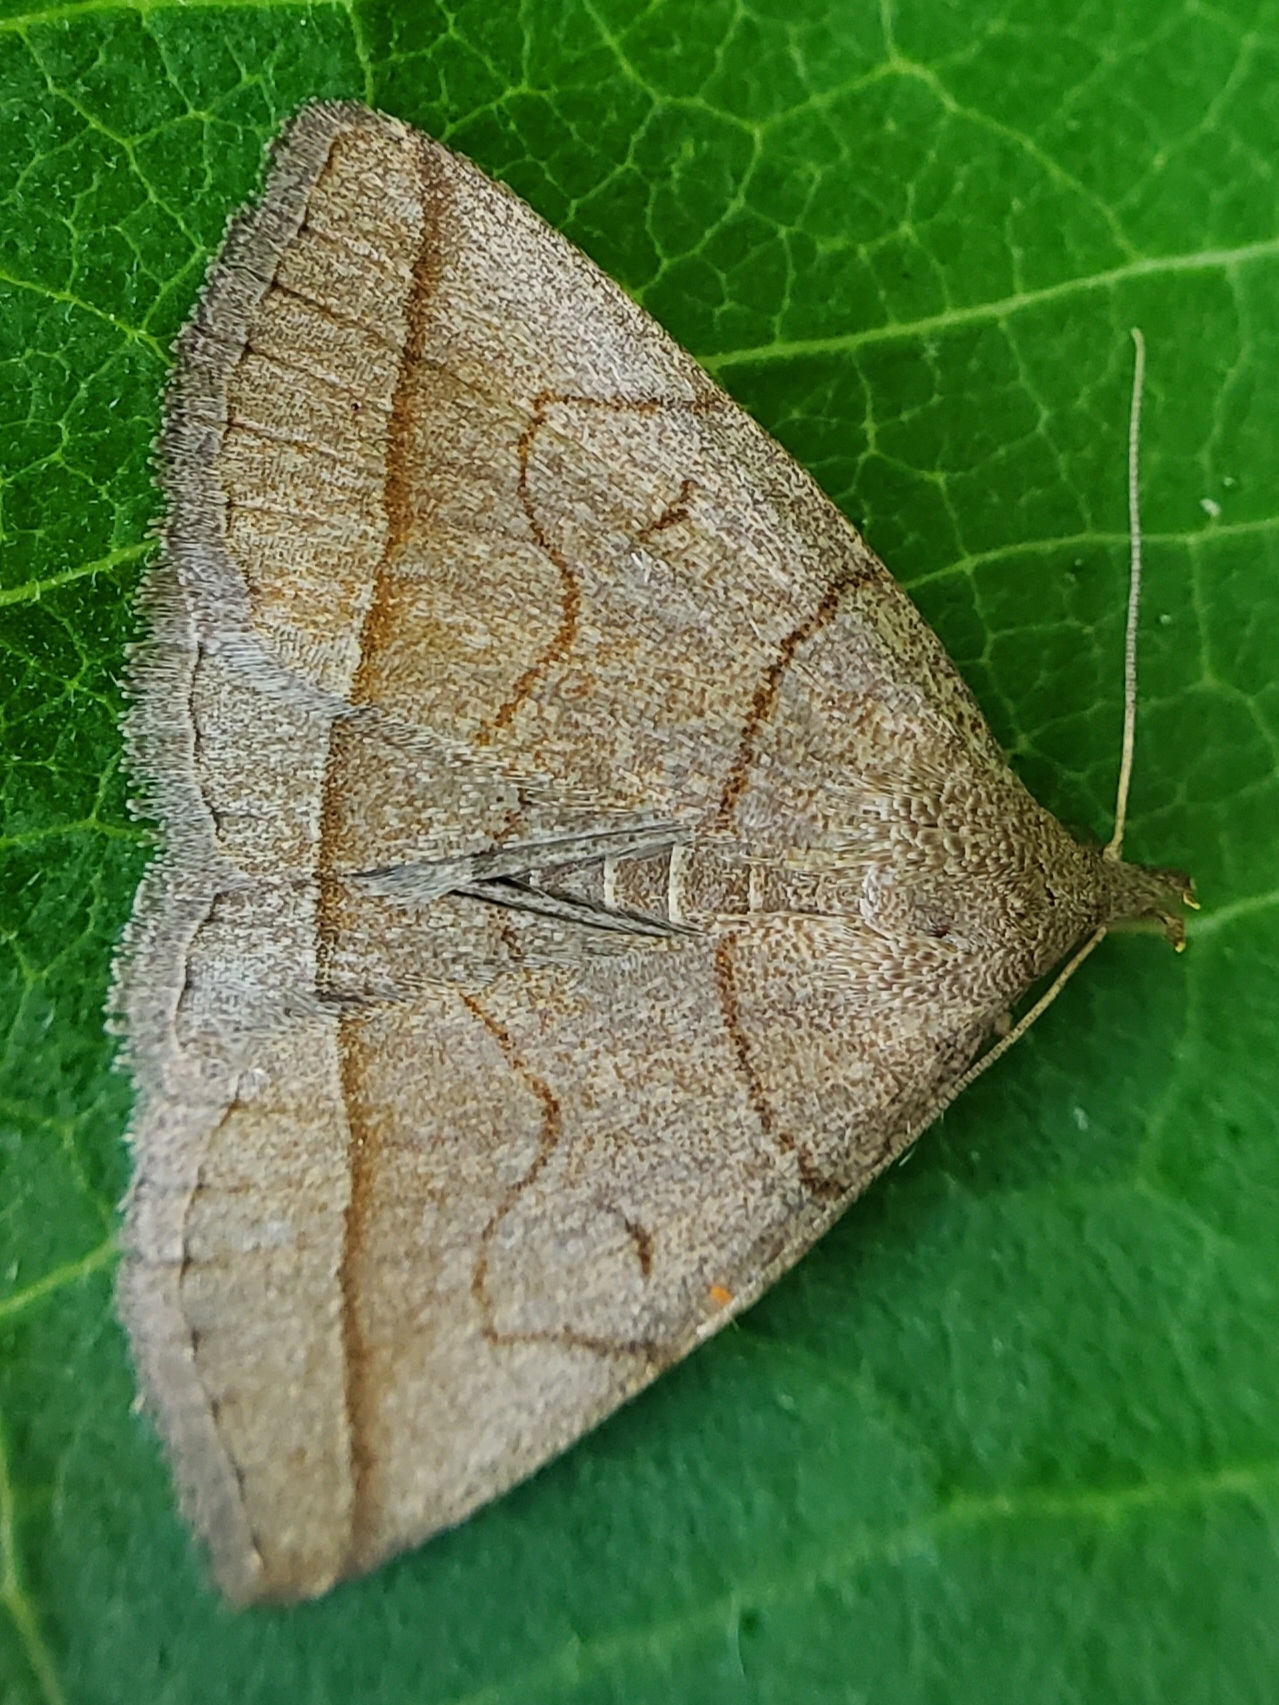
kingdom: Animalia
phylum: Arthropoda
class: Insecta
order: Lepidoptera
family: Erebidae
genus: Zanclognatha
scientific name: Zanclognatha cruralis
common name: Early fan-foot
